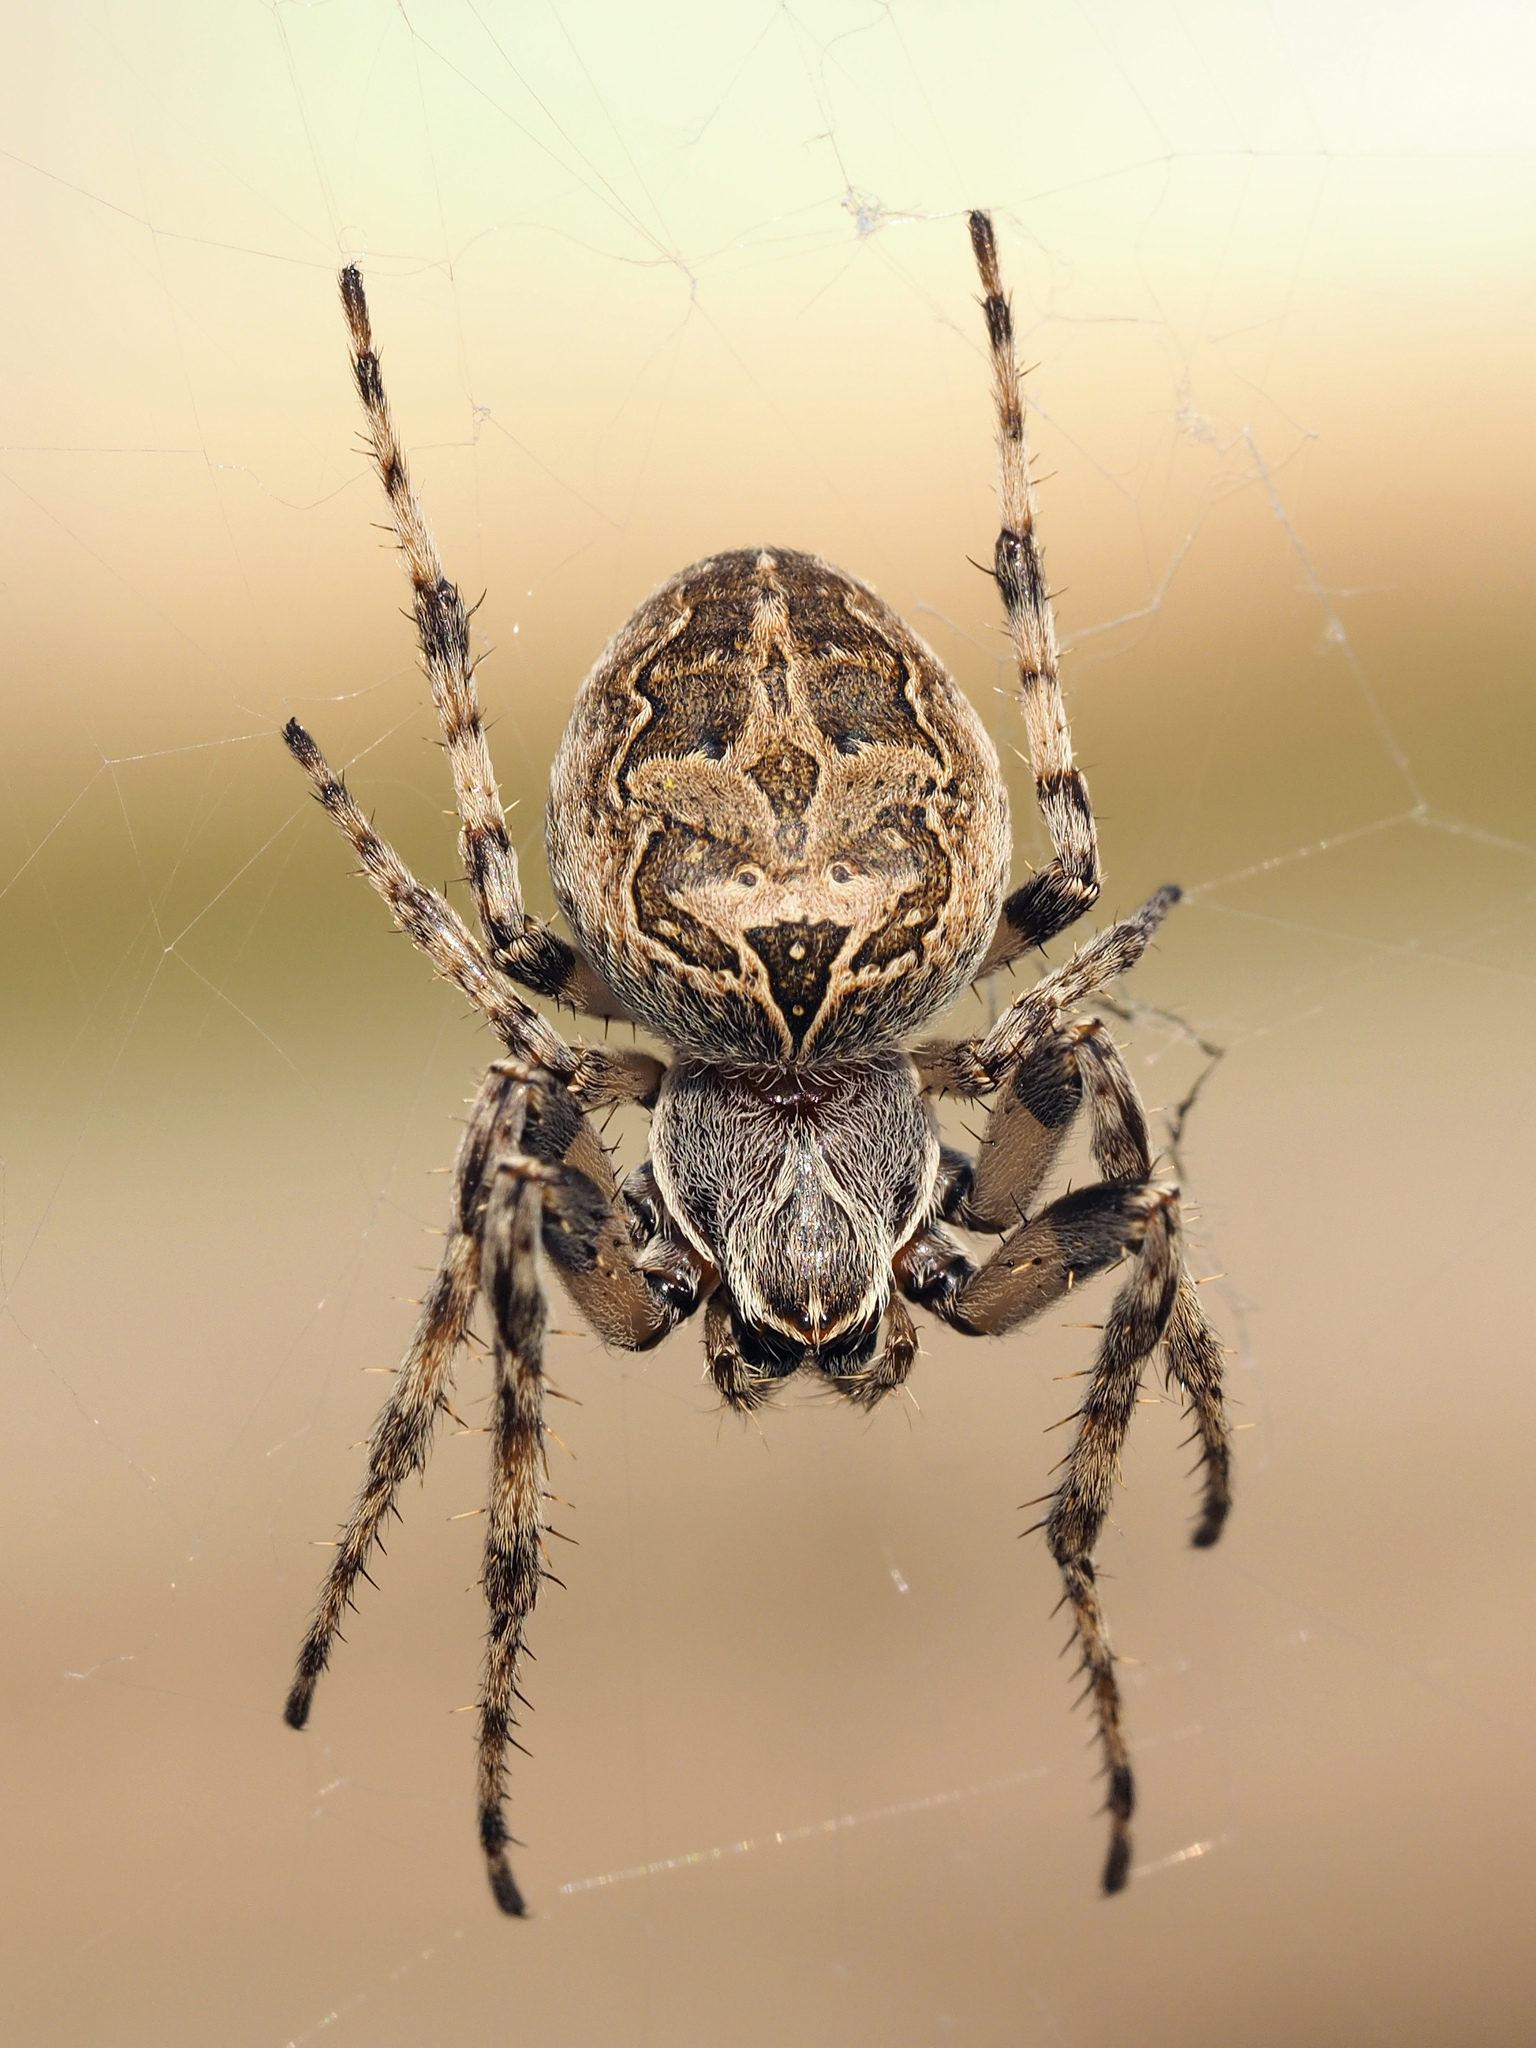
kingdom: Animalia
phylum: Arthropoda
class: Arachnida
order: Araneae
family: Araneidae
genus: Larinioides
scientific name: Larinioides sclopetarius
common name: Bridge orbweaver
